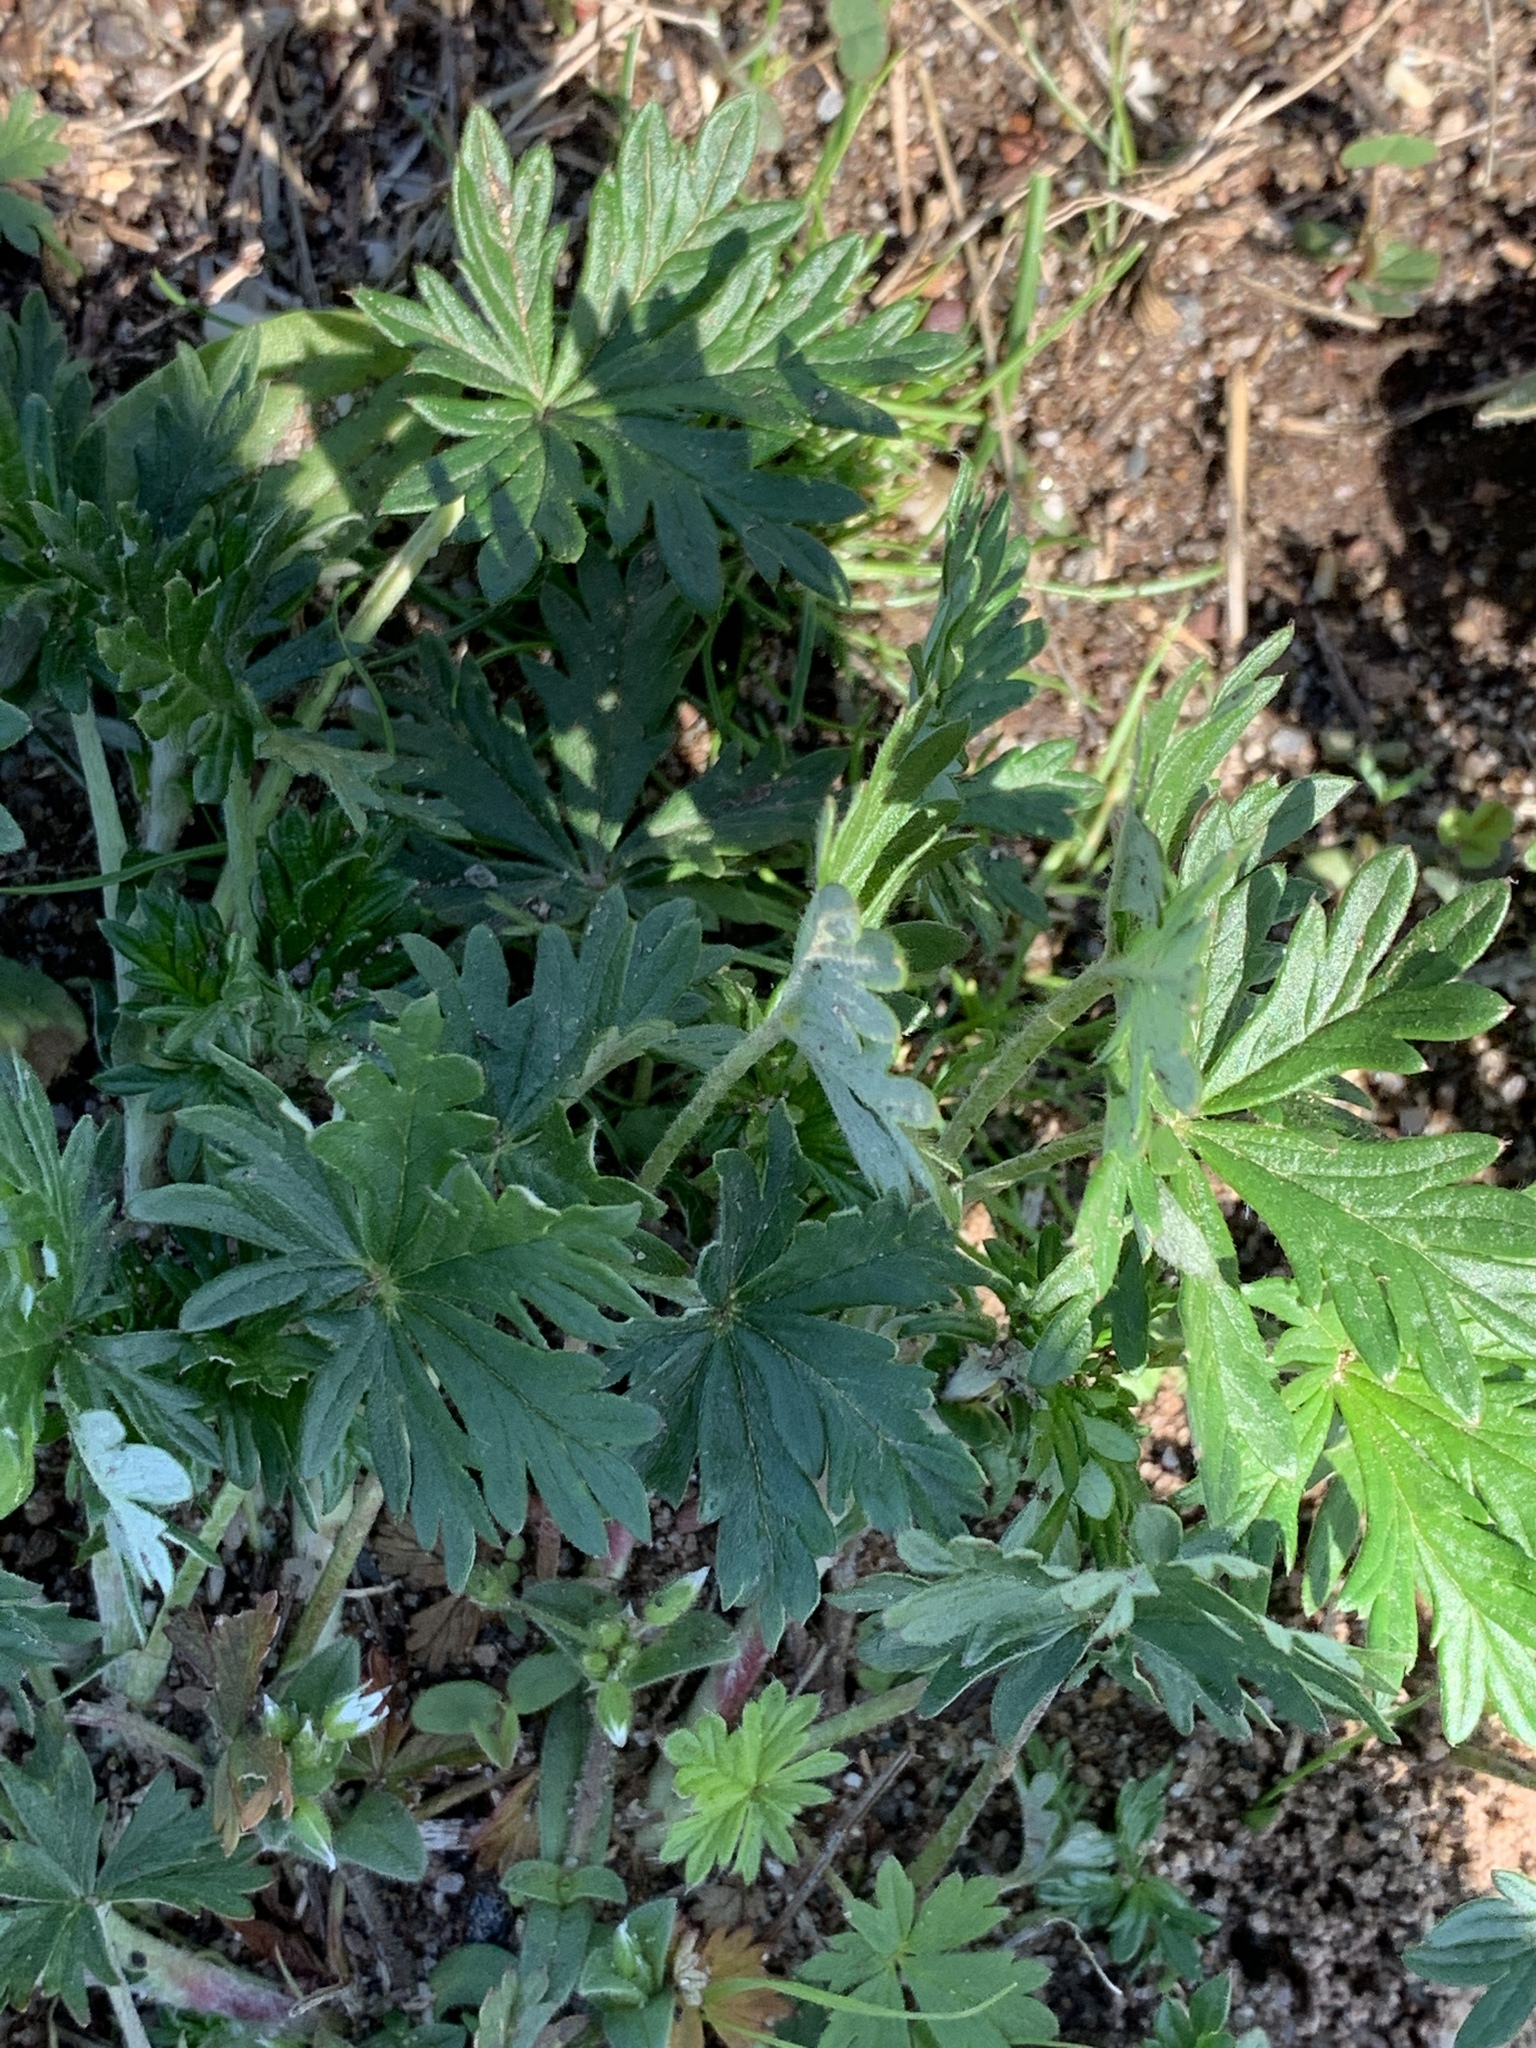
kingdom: Plantae
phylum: Tracheophyta
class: Magnoliopsida
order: Rosales
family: Rosaceae
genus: Potentilla
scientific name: Potentilla argentea
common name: Hoary cinquefoil
